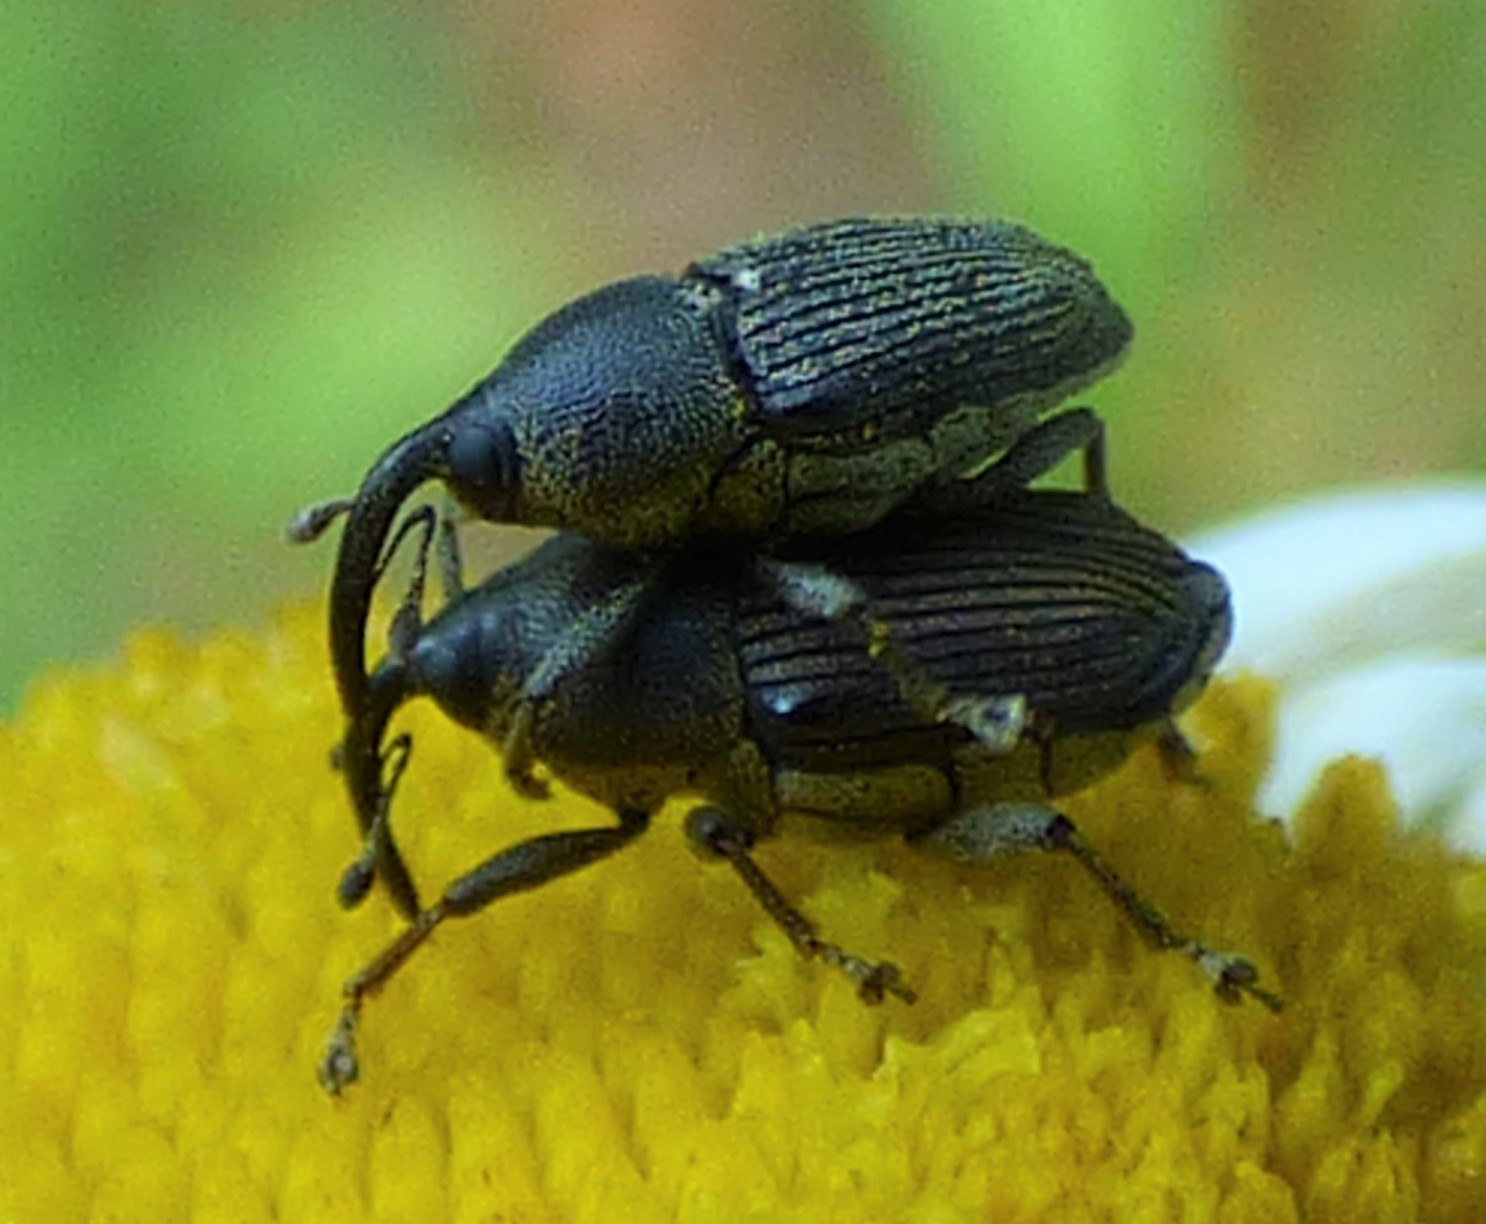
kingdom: Animalia
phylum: Arthropoda
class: Insecta
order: Coleoptera
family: Curculionidae
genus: Odontocorynus
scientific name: Odontocorynus umbellae
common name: Daisy flower weevil
